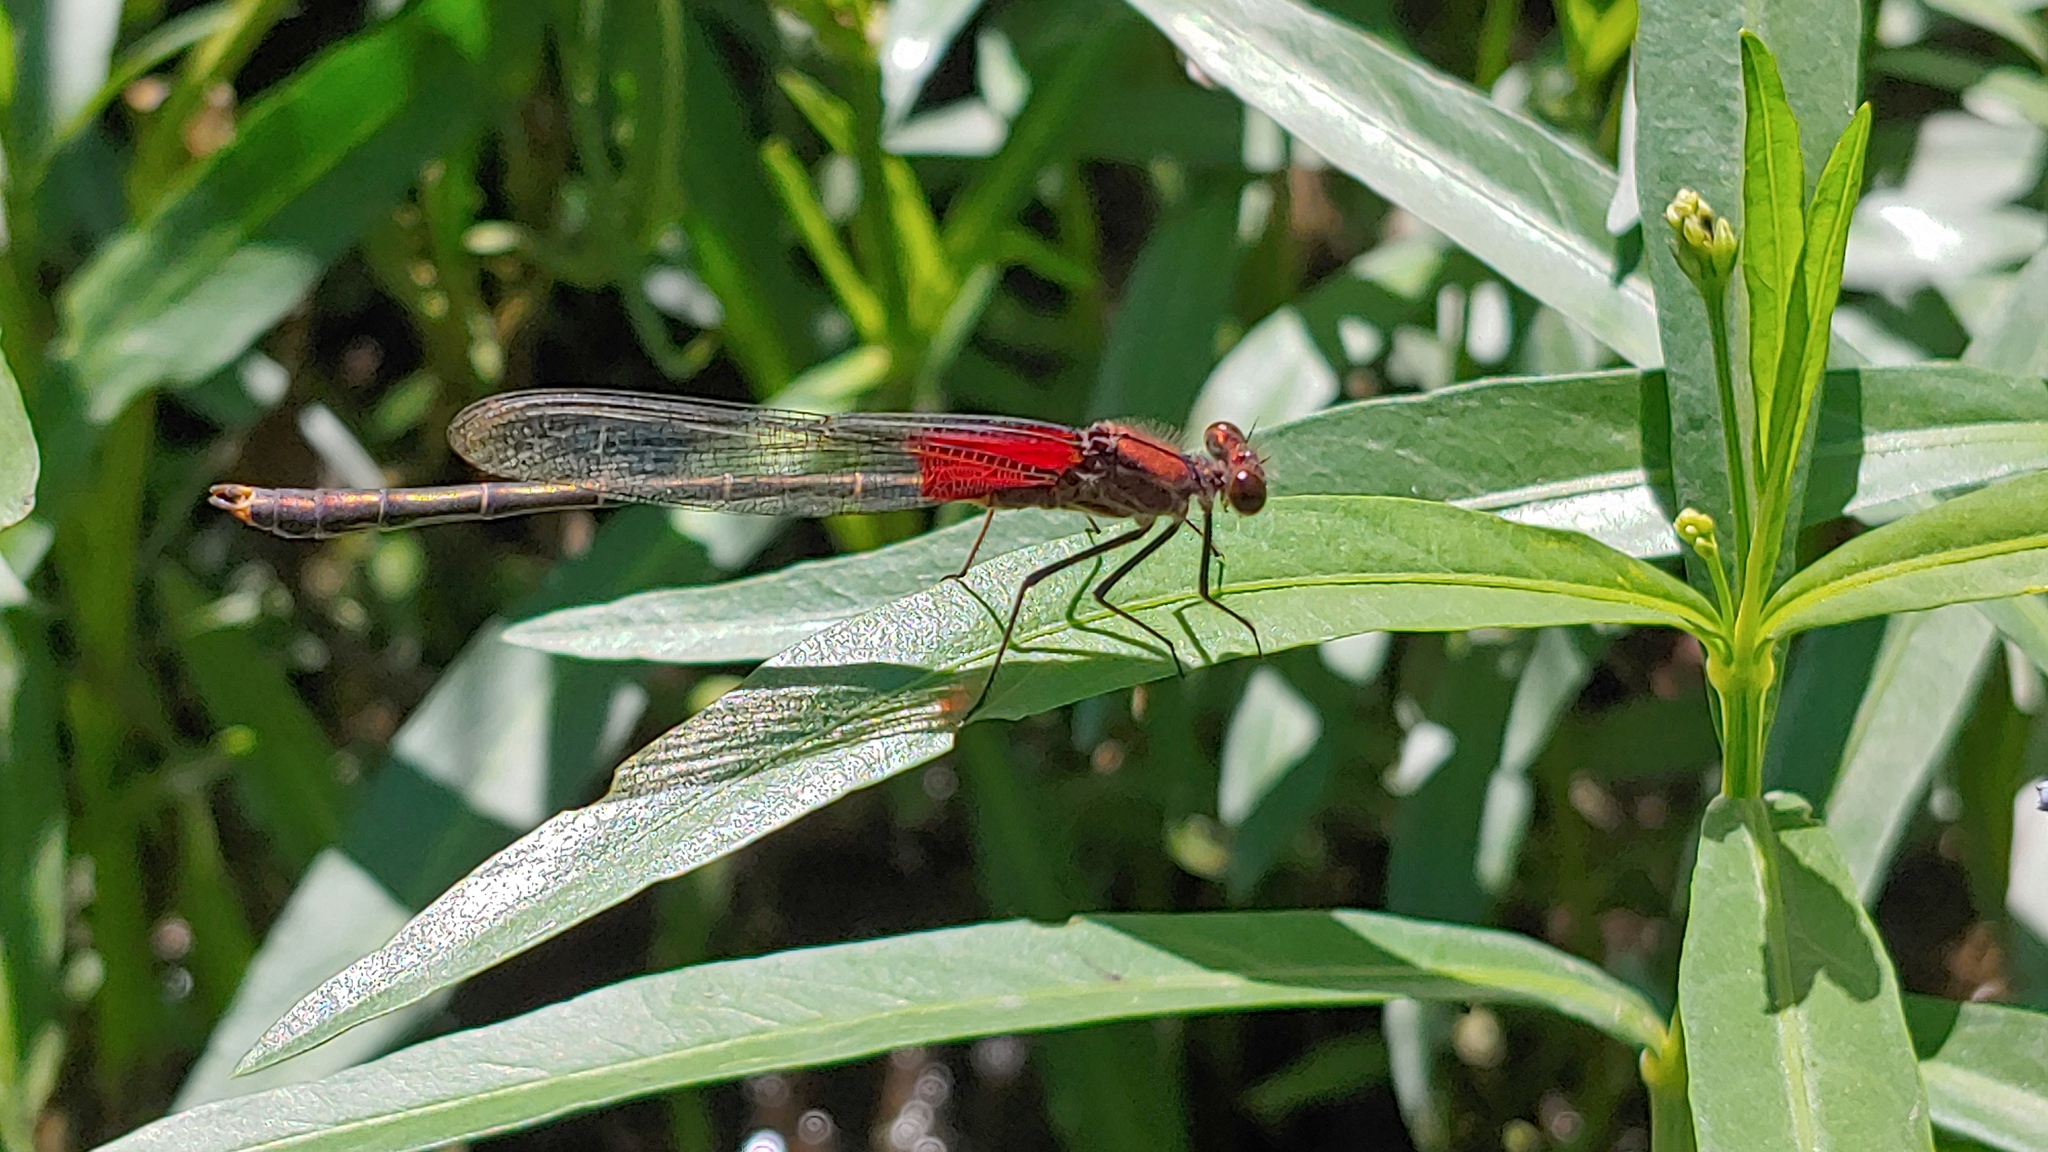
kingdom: Animalia
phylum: Arthropoda
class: Insecta
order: Odonata
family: Calopterygidae
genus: Hetaerina
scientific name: Hetaerina americana
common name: American rubyspot
